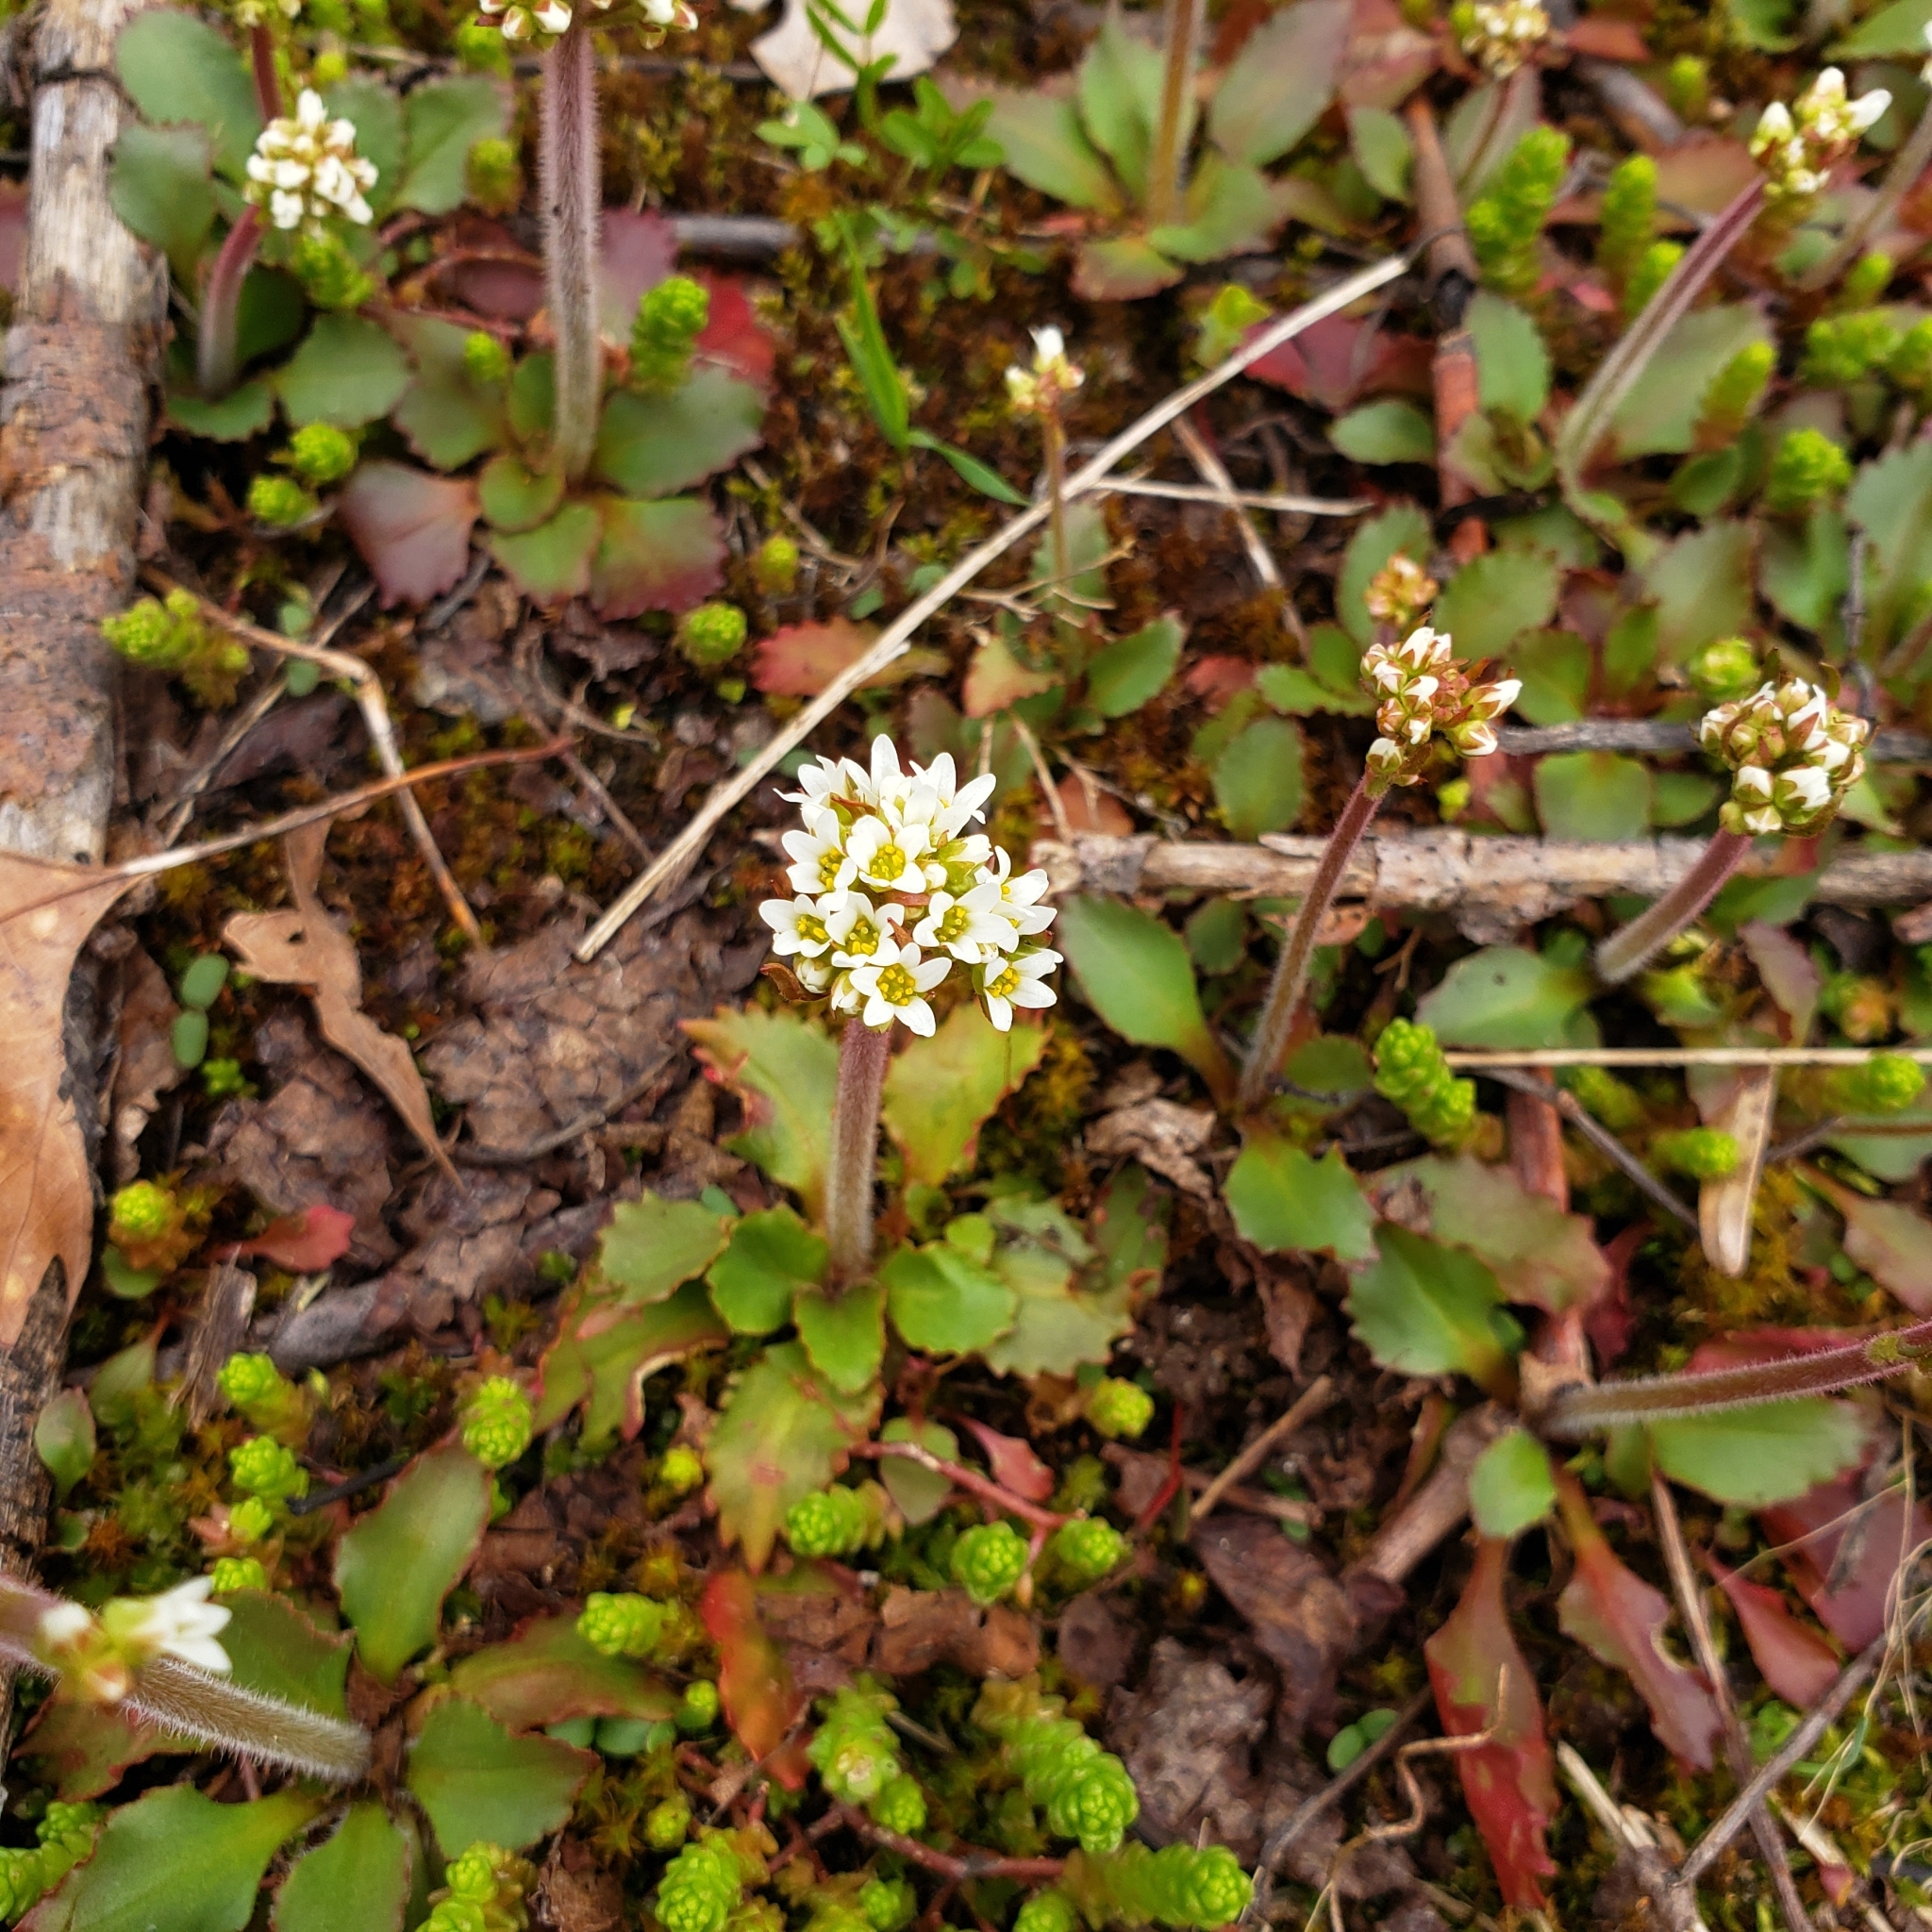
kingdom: Plantae
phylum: Tracheophyta
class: Magnoliopsida
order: Saxifragales
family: Saxifragaceae
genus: Micranthes
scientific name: Micranthes virginiensis
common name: Early saxifrage
